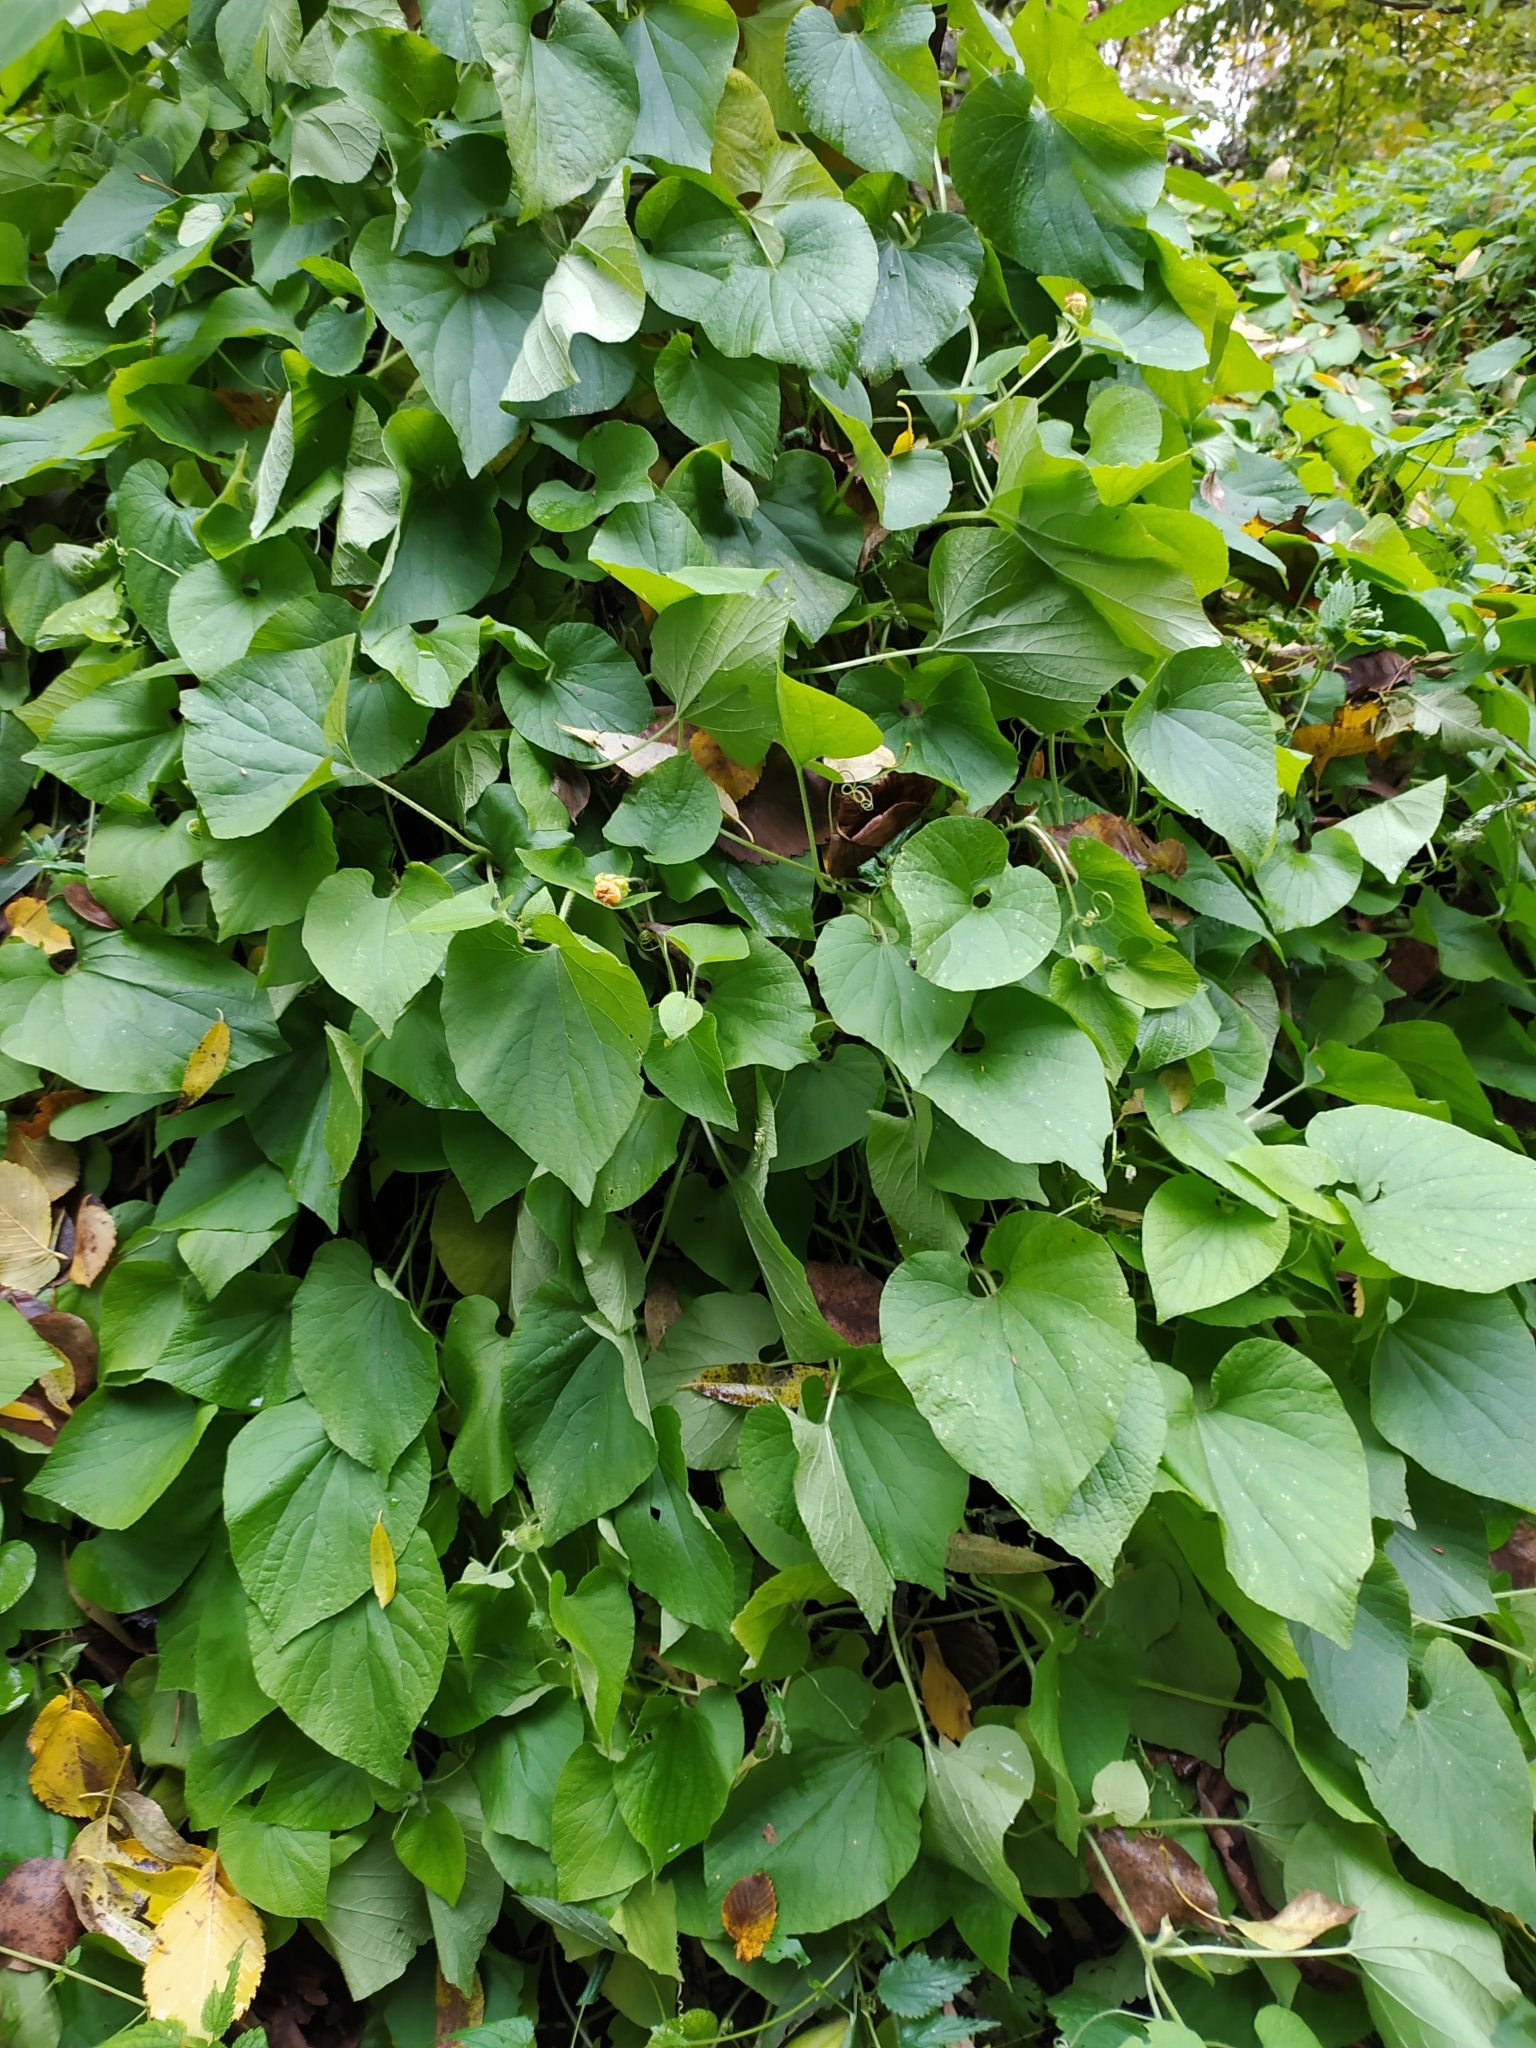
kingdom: Plantae
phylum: Tracheophyta
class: Magnoliopsida
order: Cucurbitales
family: Cucurbitaceae
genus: Thladiantha
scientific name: Thladiantha dubia
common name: Manchu tubergourd
